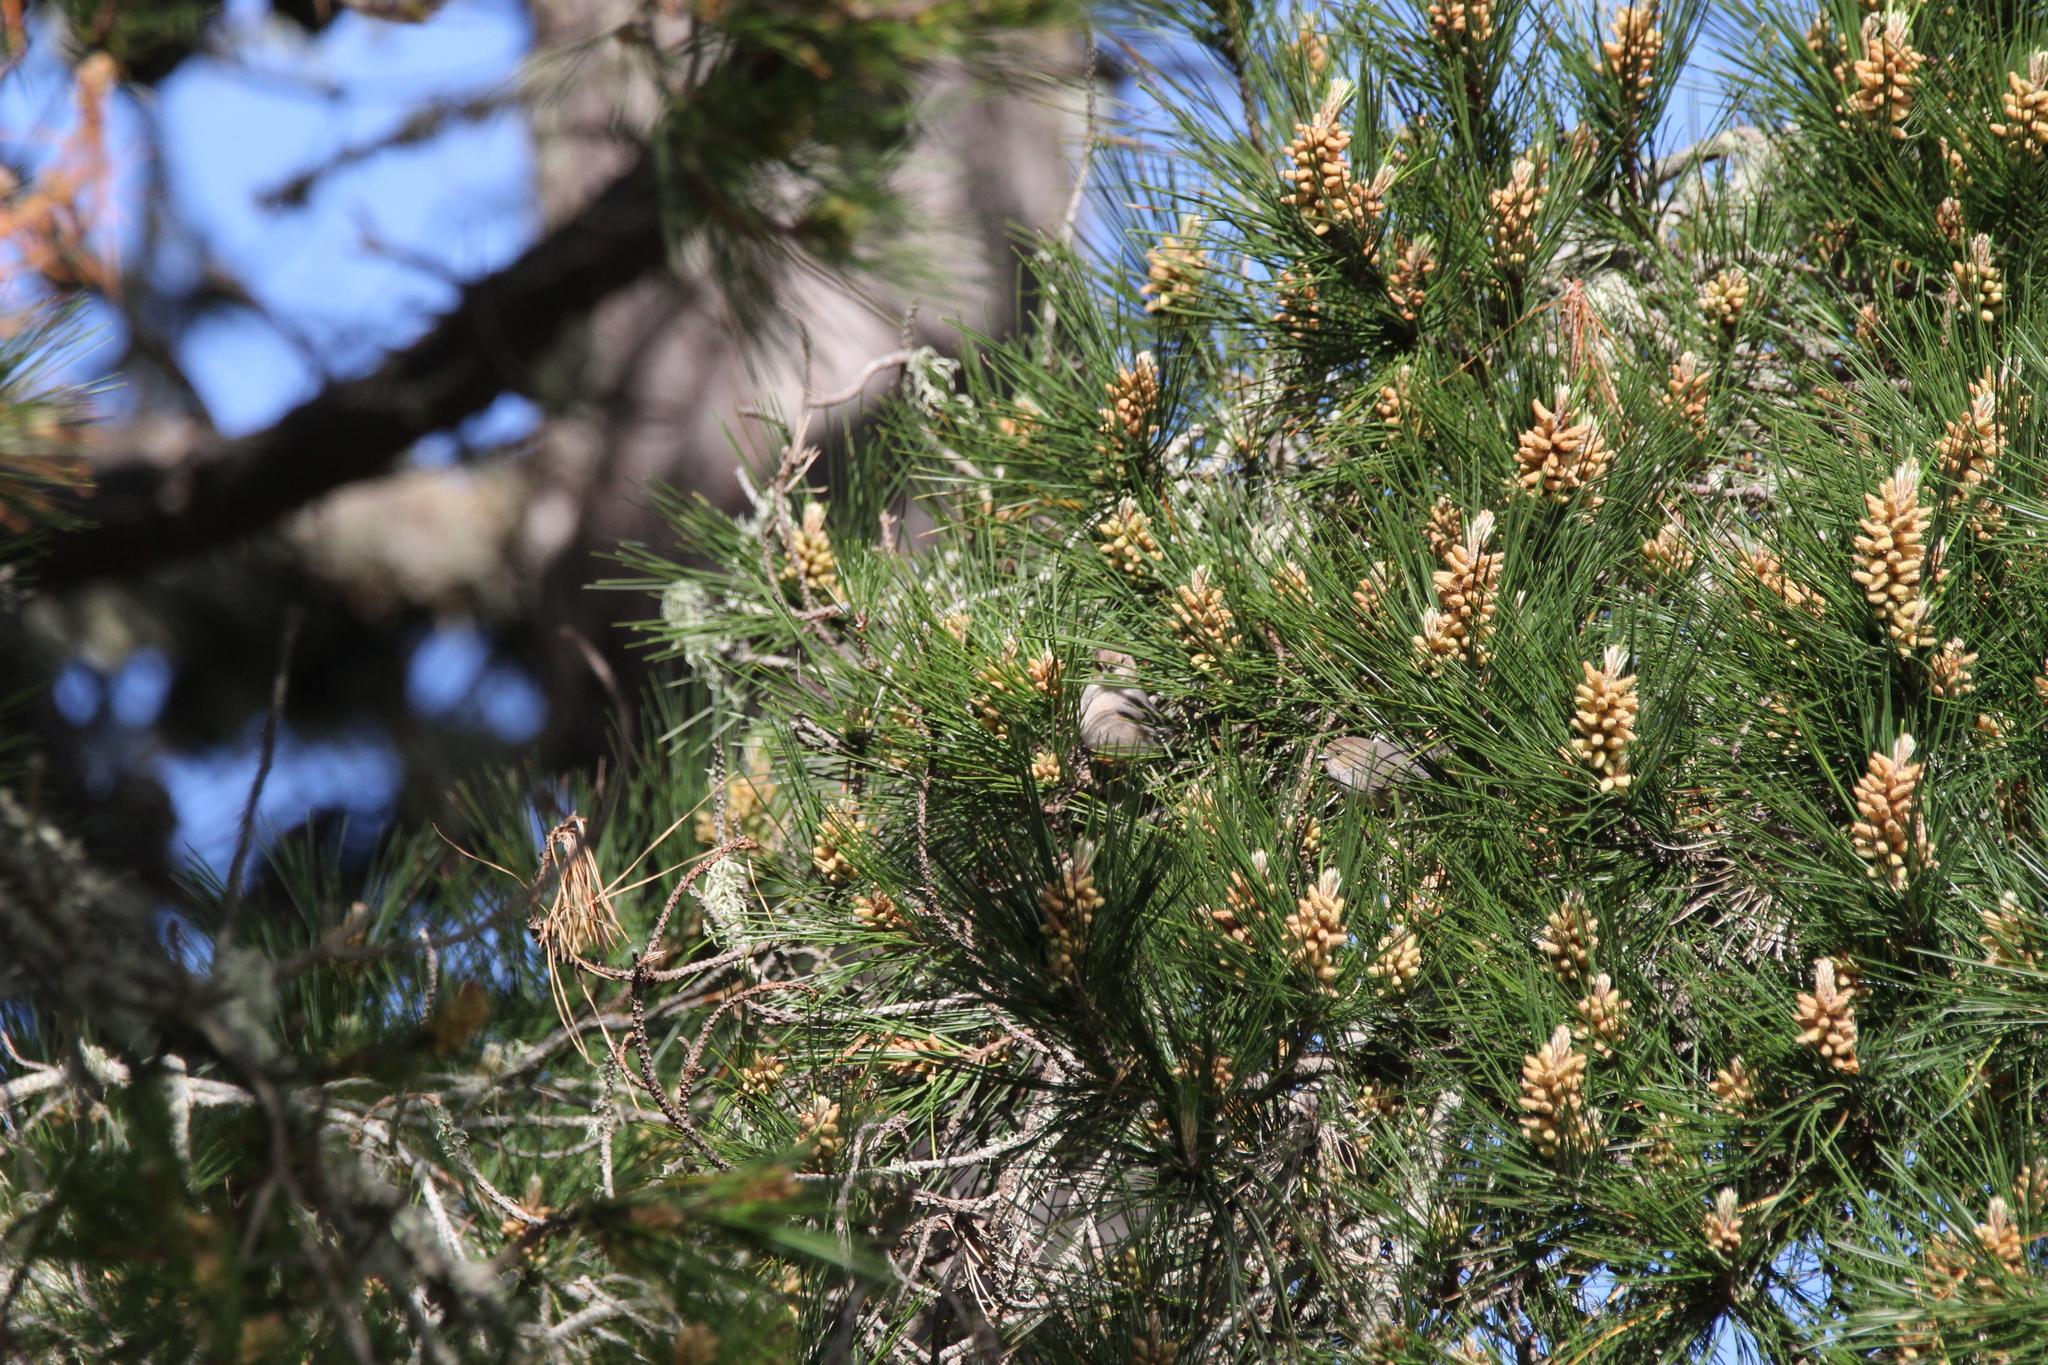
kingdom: Animalia
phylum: Chordata
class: Aves
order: Passeriformes
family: Aegithalidae
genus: Psaltriparus
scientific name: Psaltriparus minimus
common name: American bushtit
